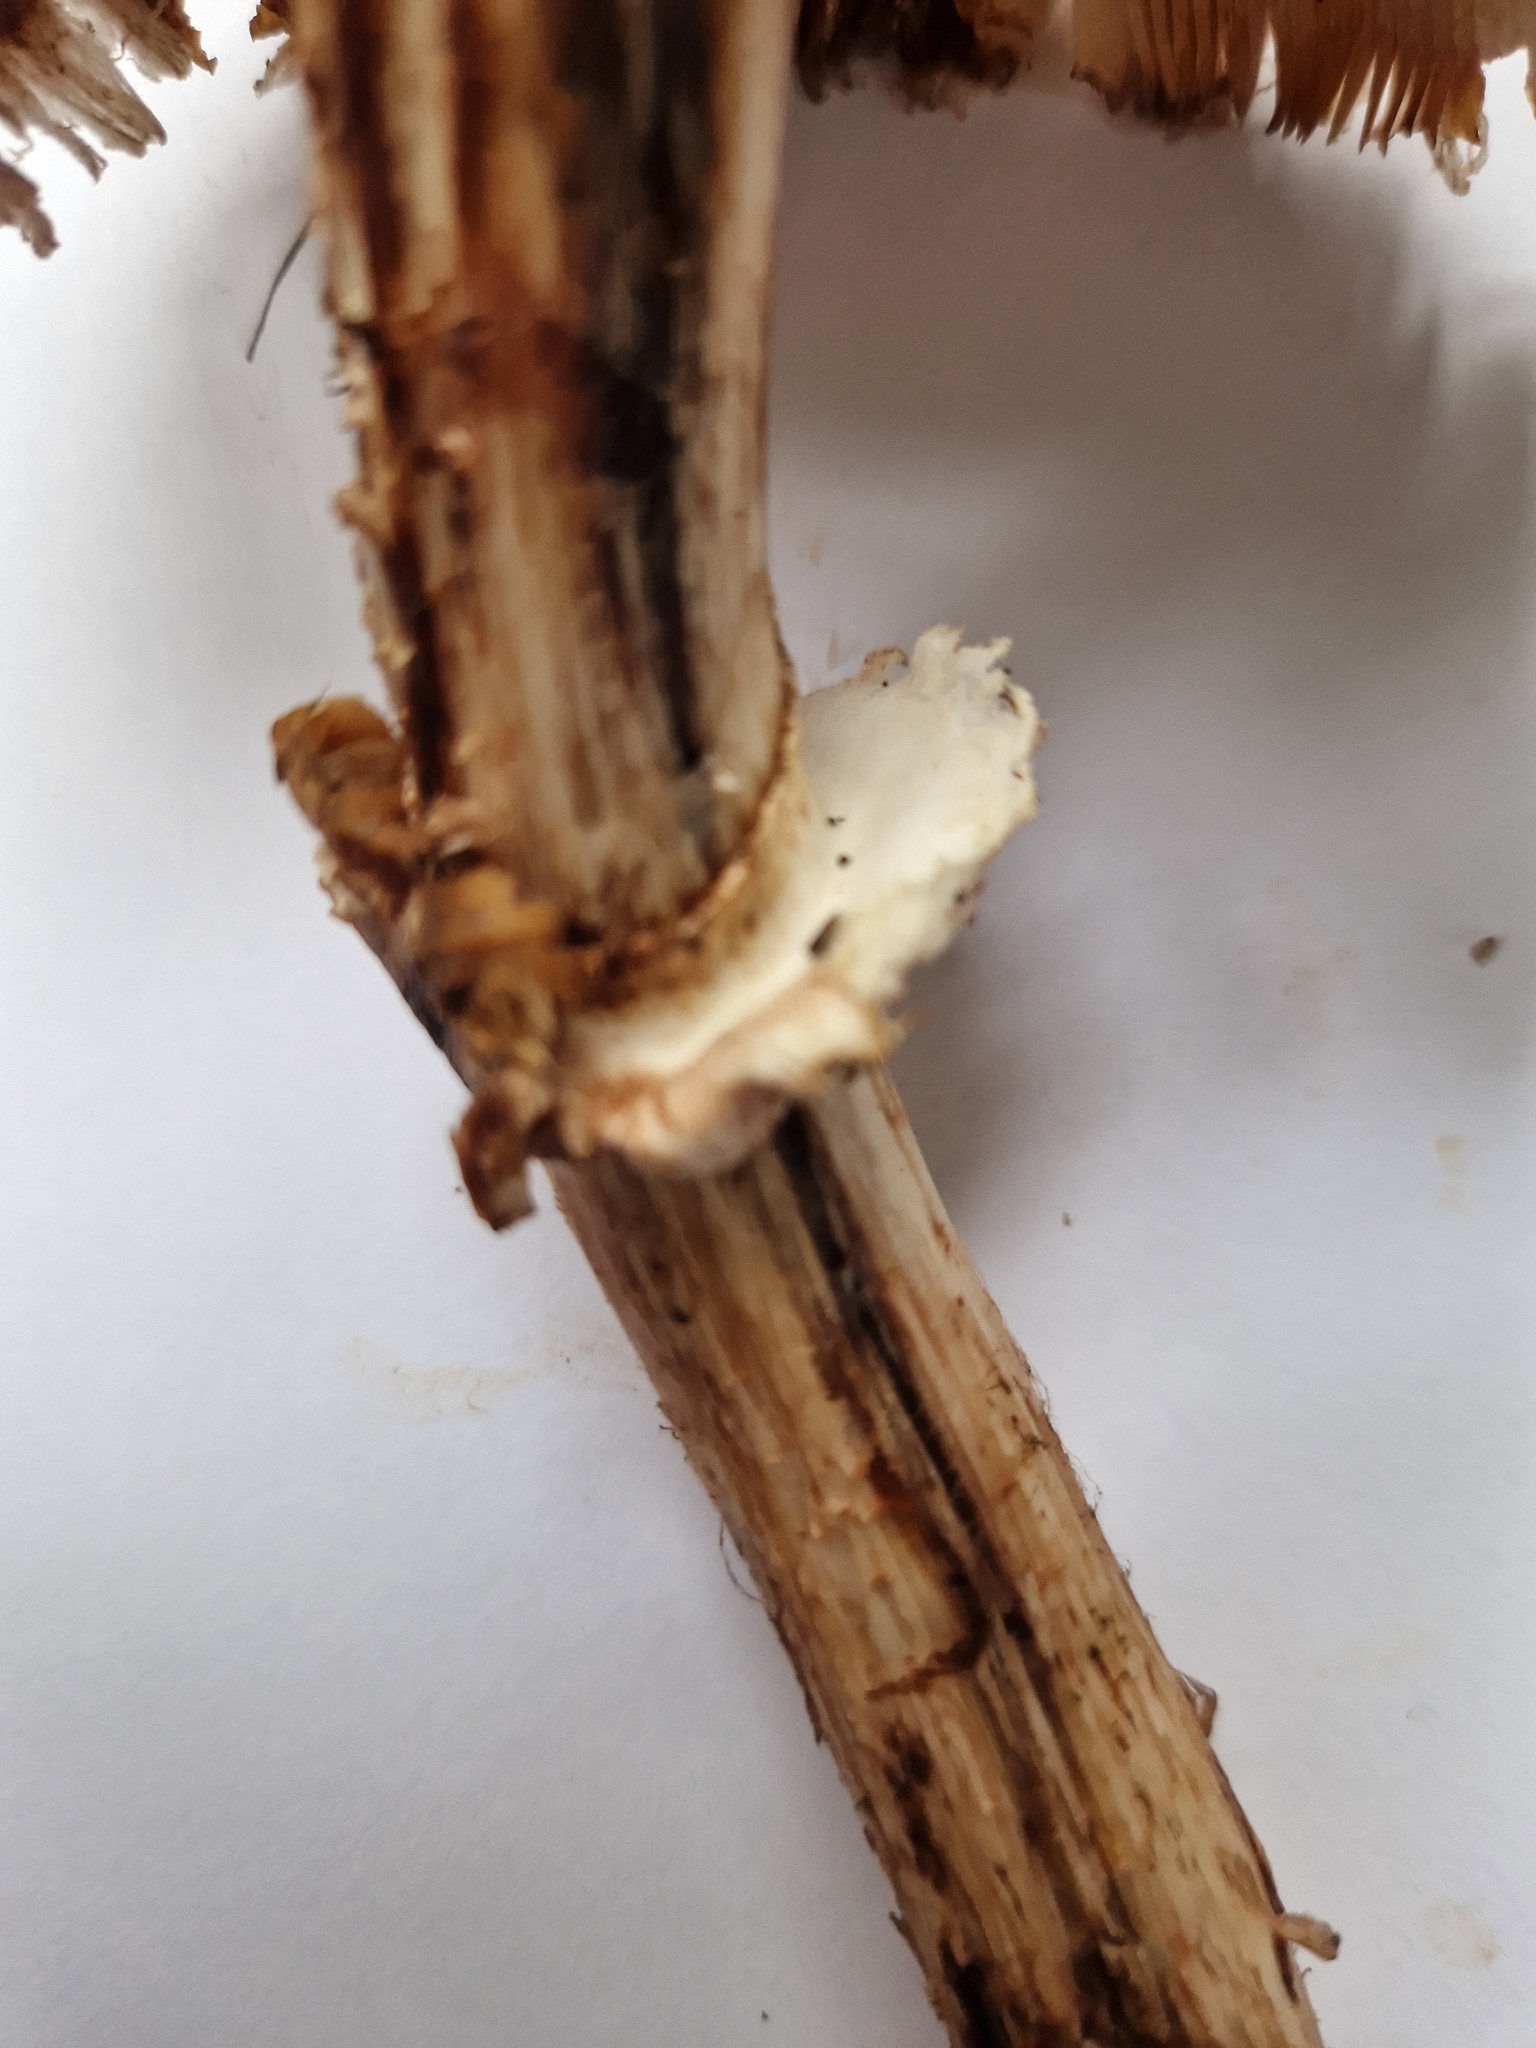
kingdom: Fungi
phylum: Basidiomycota
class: Agaricomycetes
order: Agaricales
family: Agaricaceae
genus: Chlorophyllum
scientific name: Chlorophyllum rhacodes
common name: Shaggy parasol
